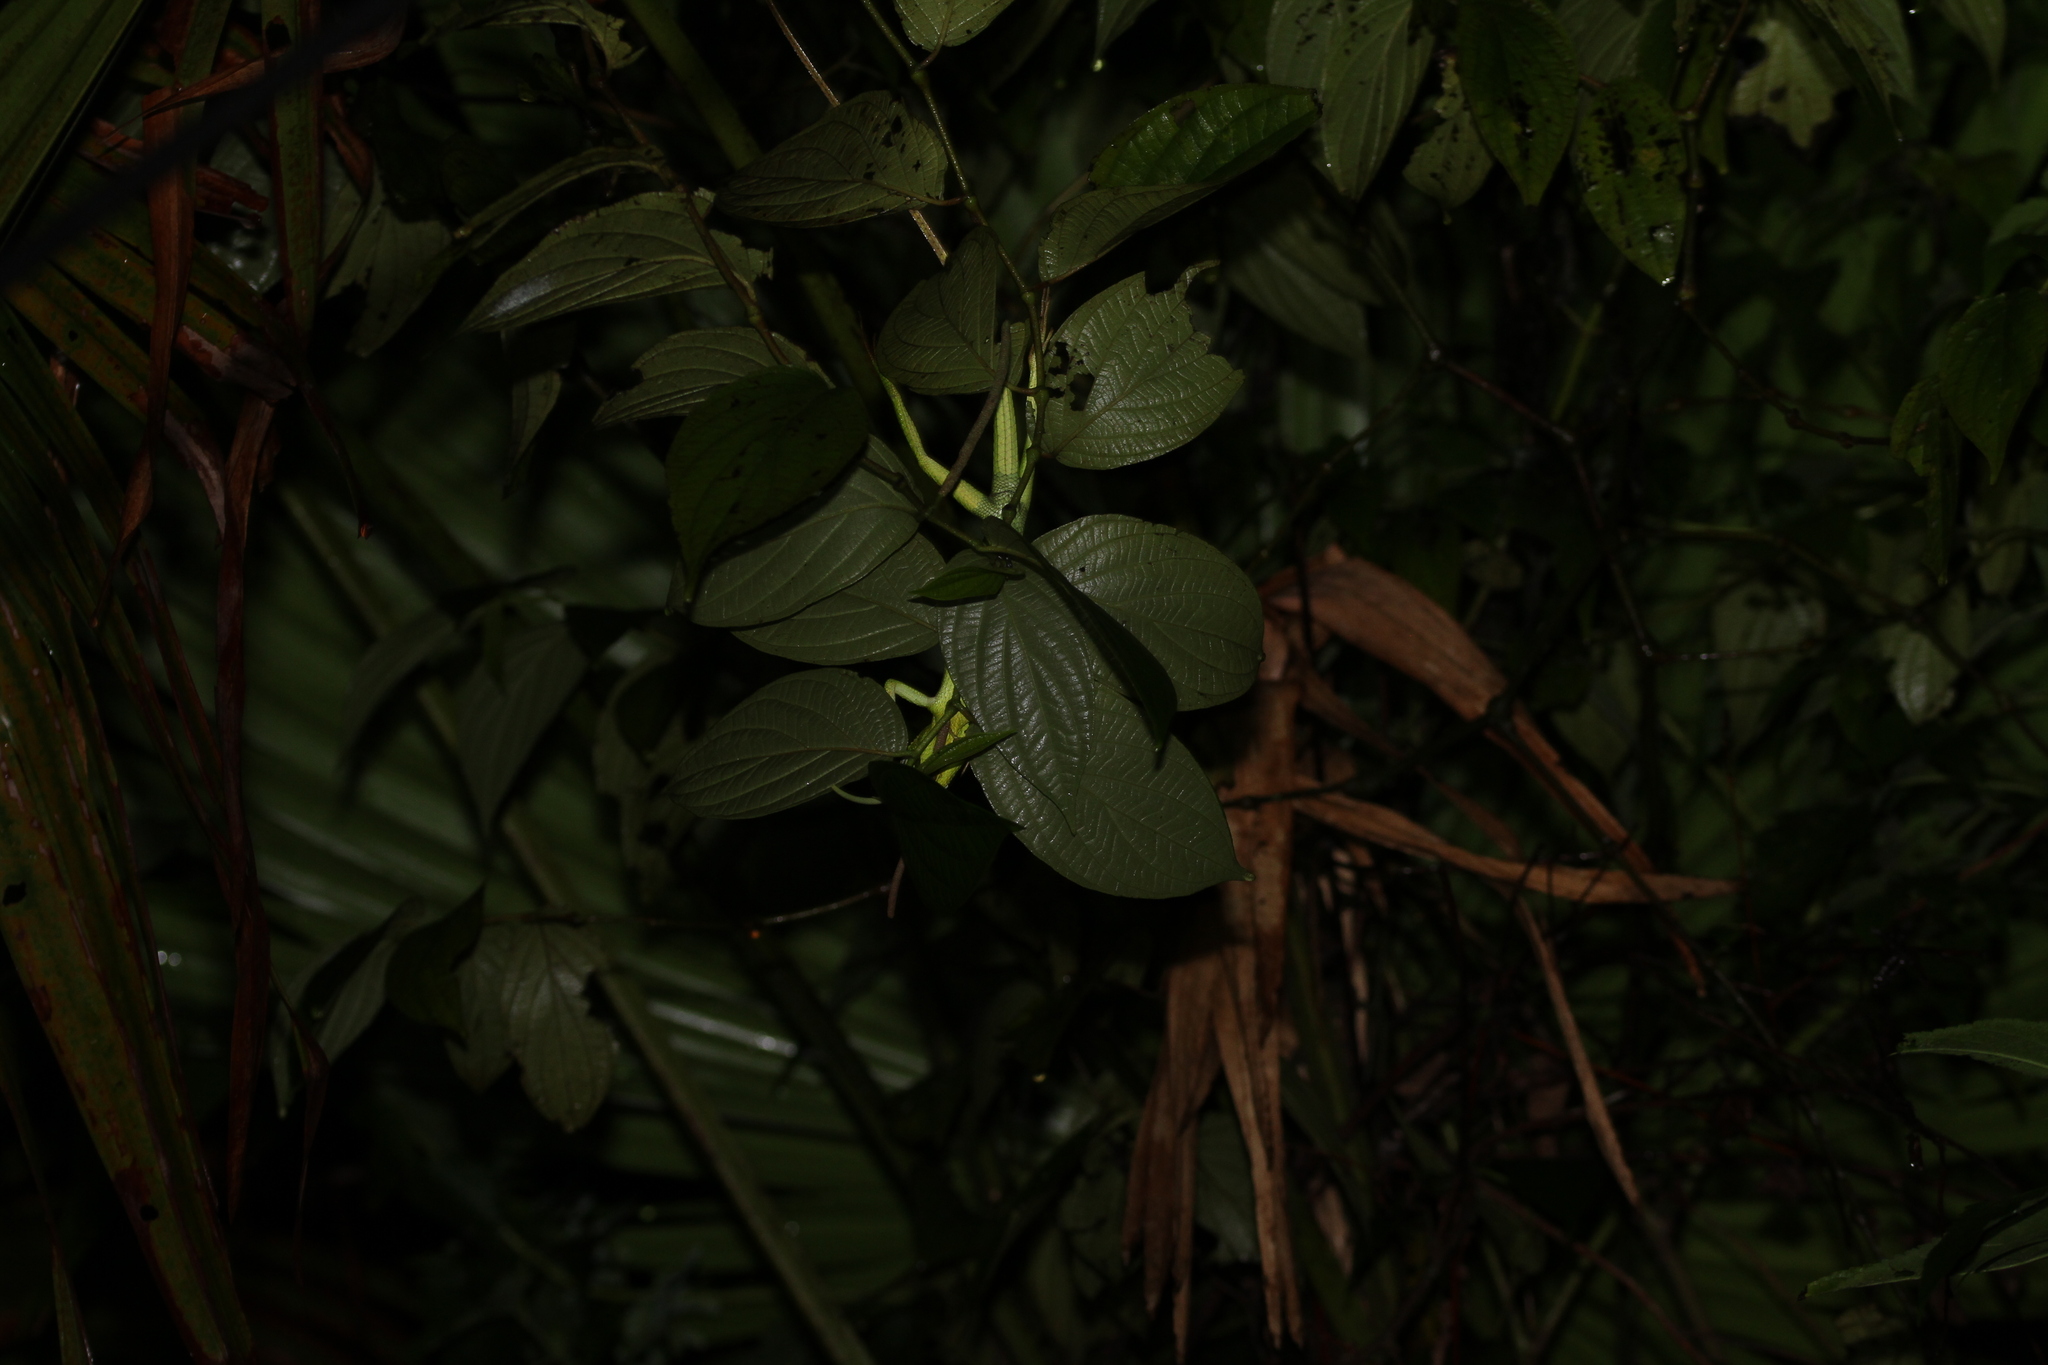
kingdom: Animalia
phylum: Chordata
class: Squamata
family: Agamidae
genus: Bronchocela
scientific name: Bronchocela jubata
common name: Maned forest lizard
